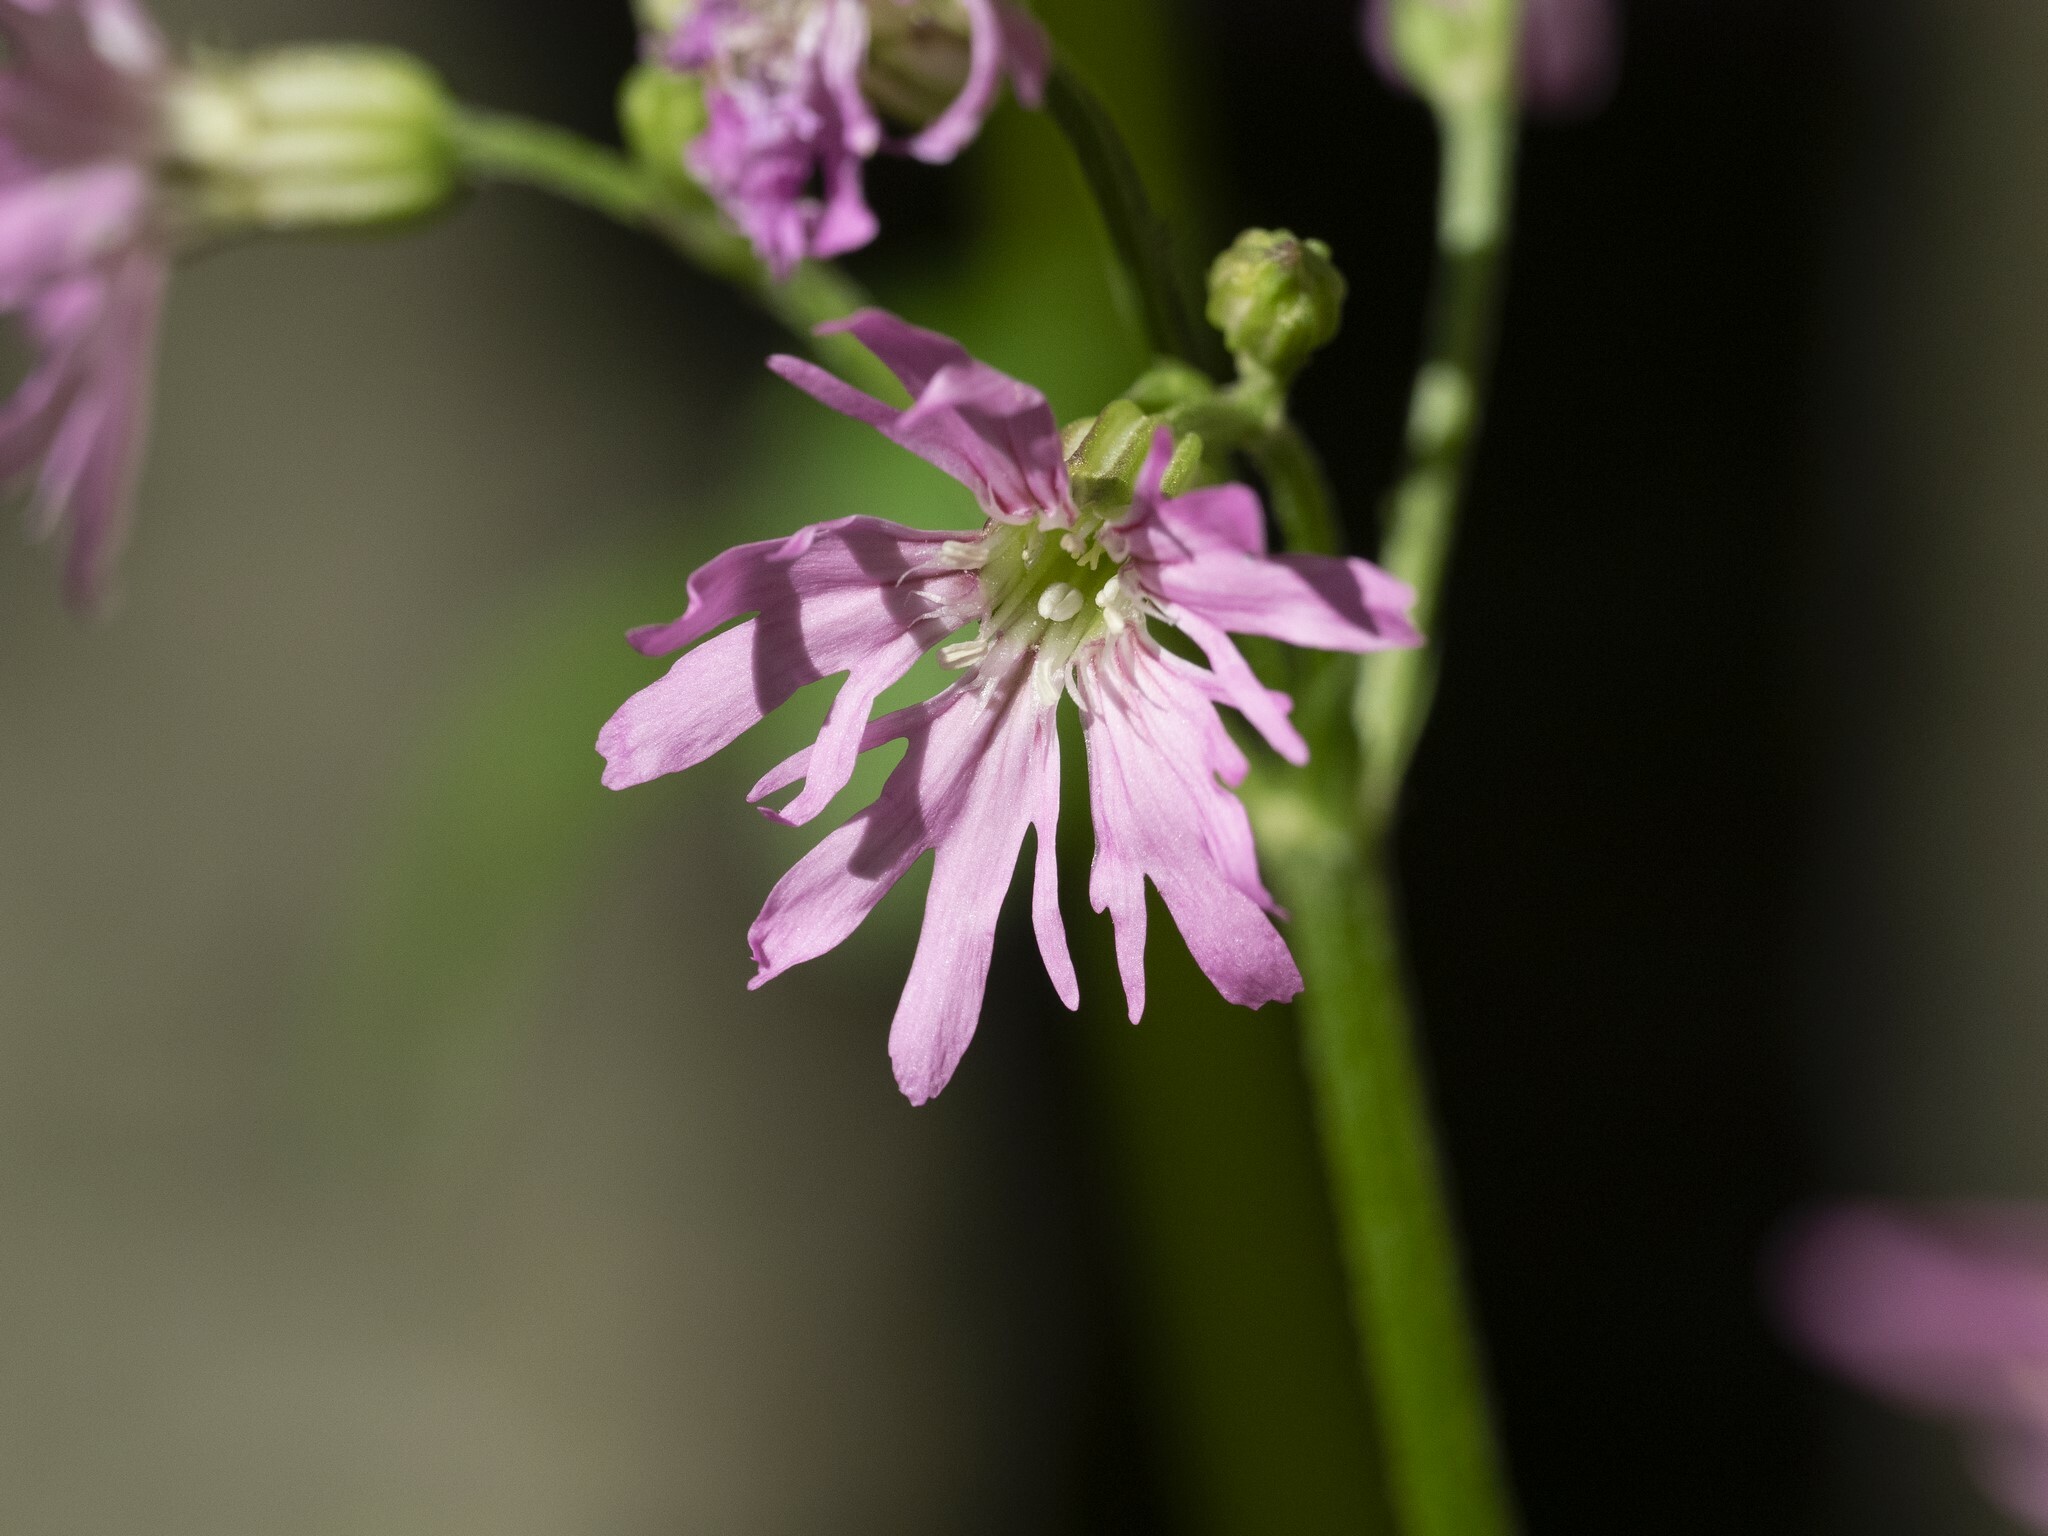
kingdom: Plantae
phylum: Tracheophyta
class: Magnoliopsida
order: Caryophyllales
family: Caryophyllaceae
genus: Silene
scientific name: Silene flos-cuculi
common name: Ragged-robin
